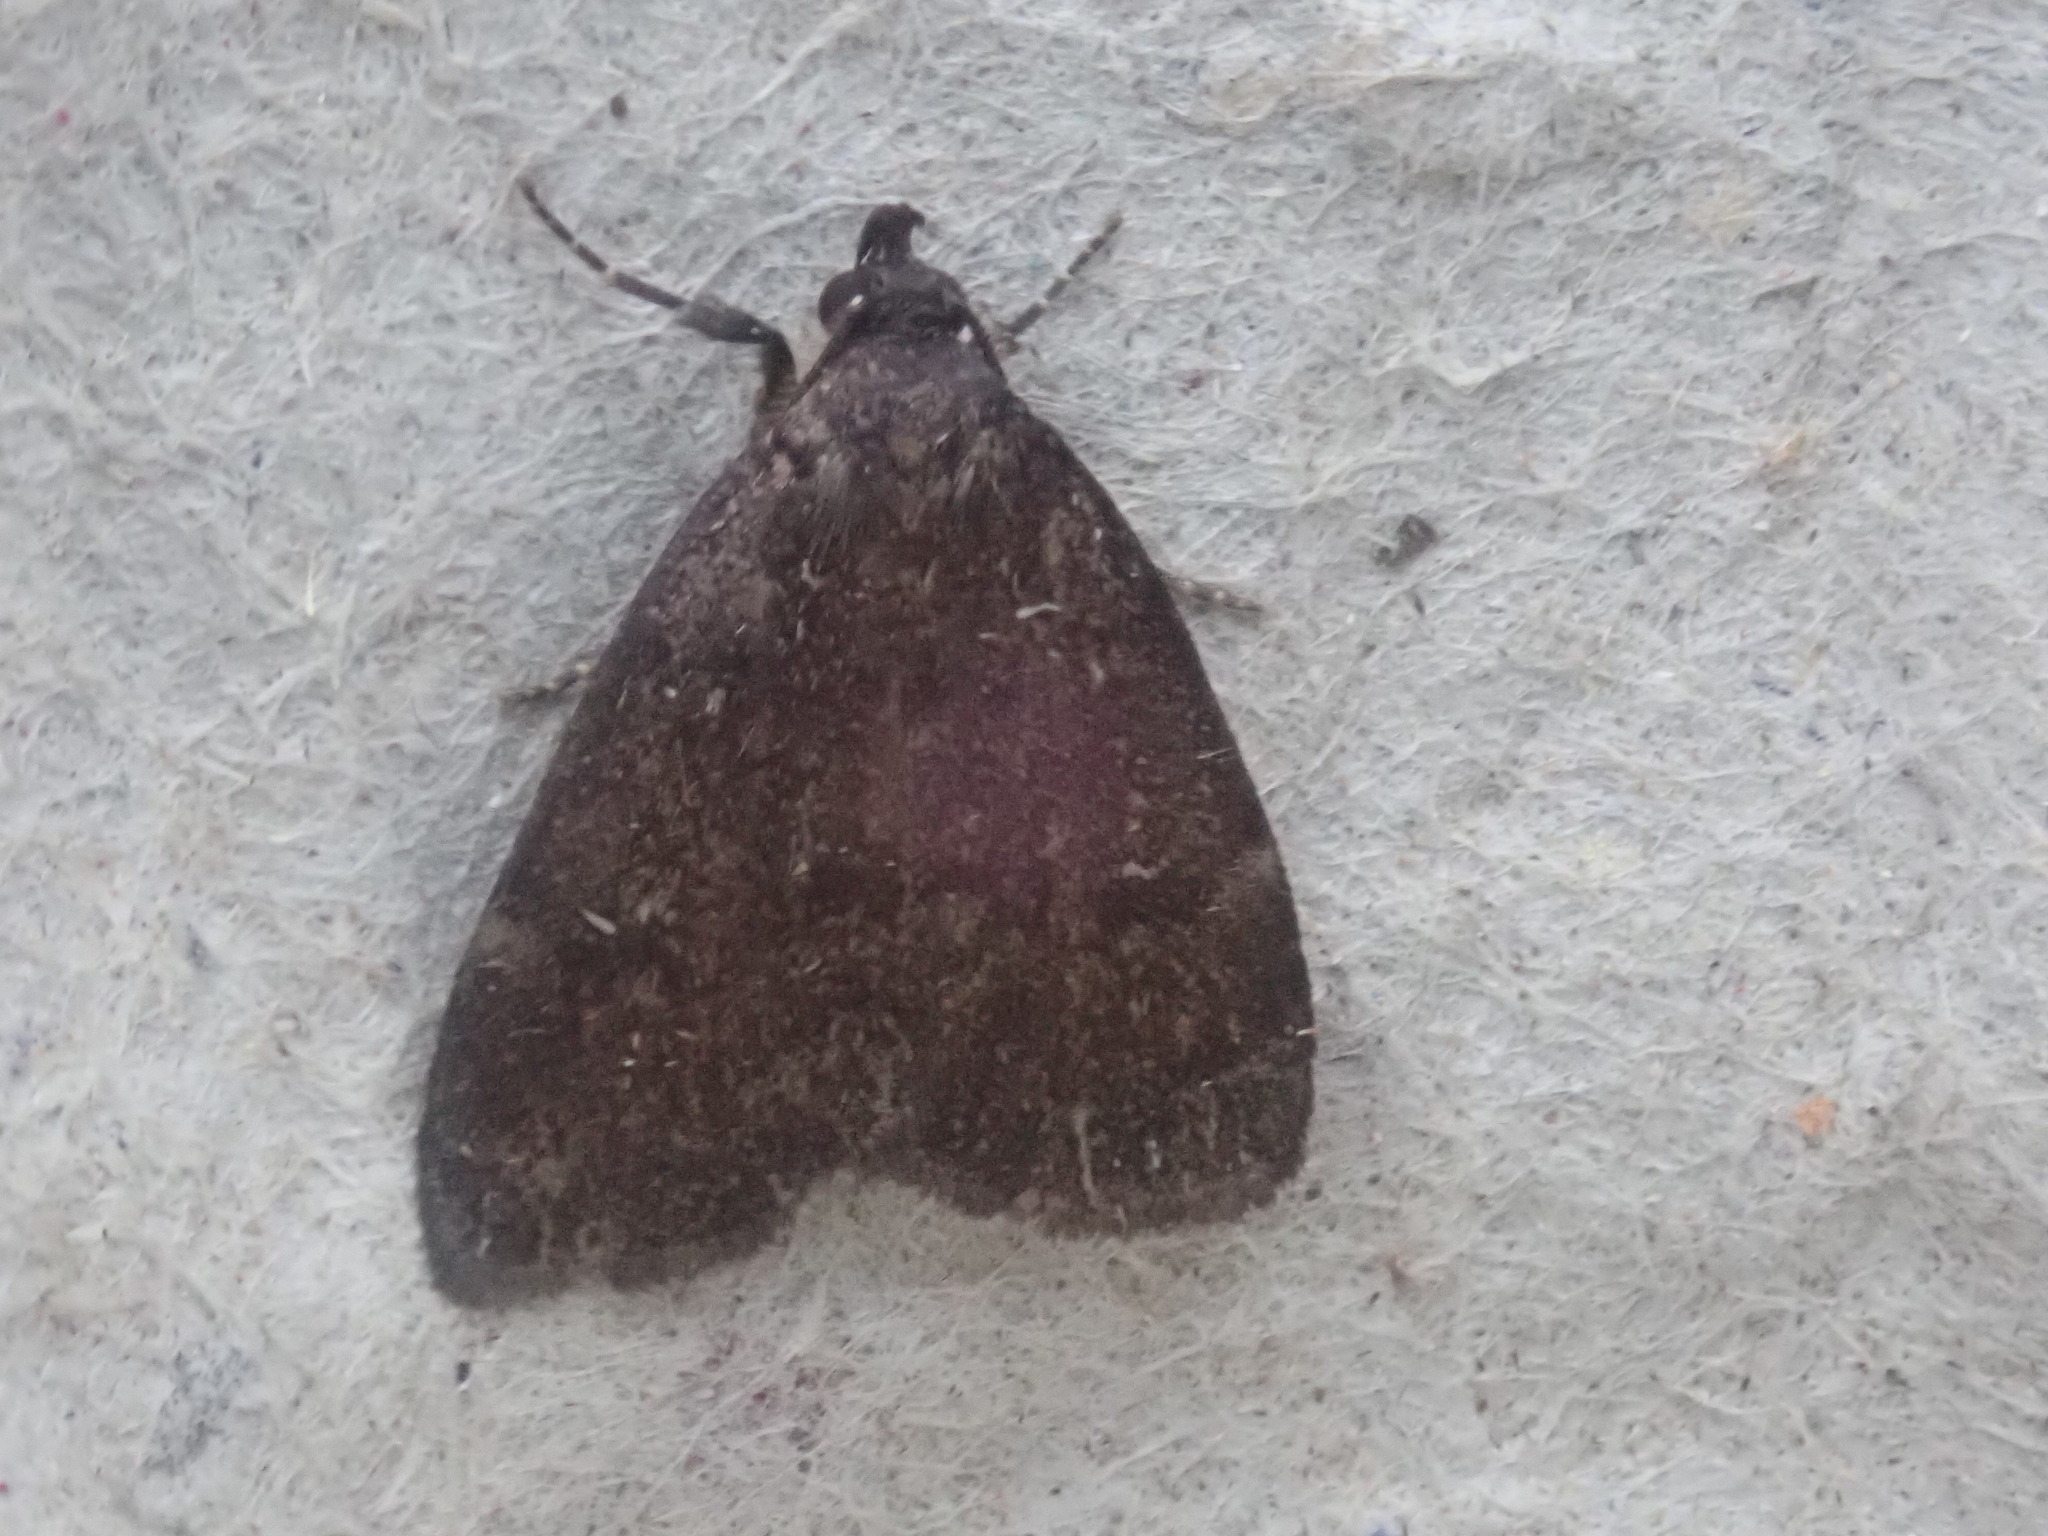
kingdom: Animalia
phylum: Arthropoda
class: Insecta
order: Lepidoptera
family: Erebidae
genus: Idia
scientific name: Idia rotundalis
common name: Rotund idia moth
